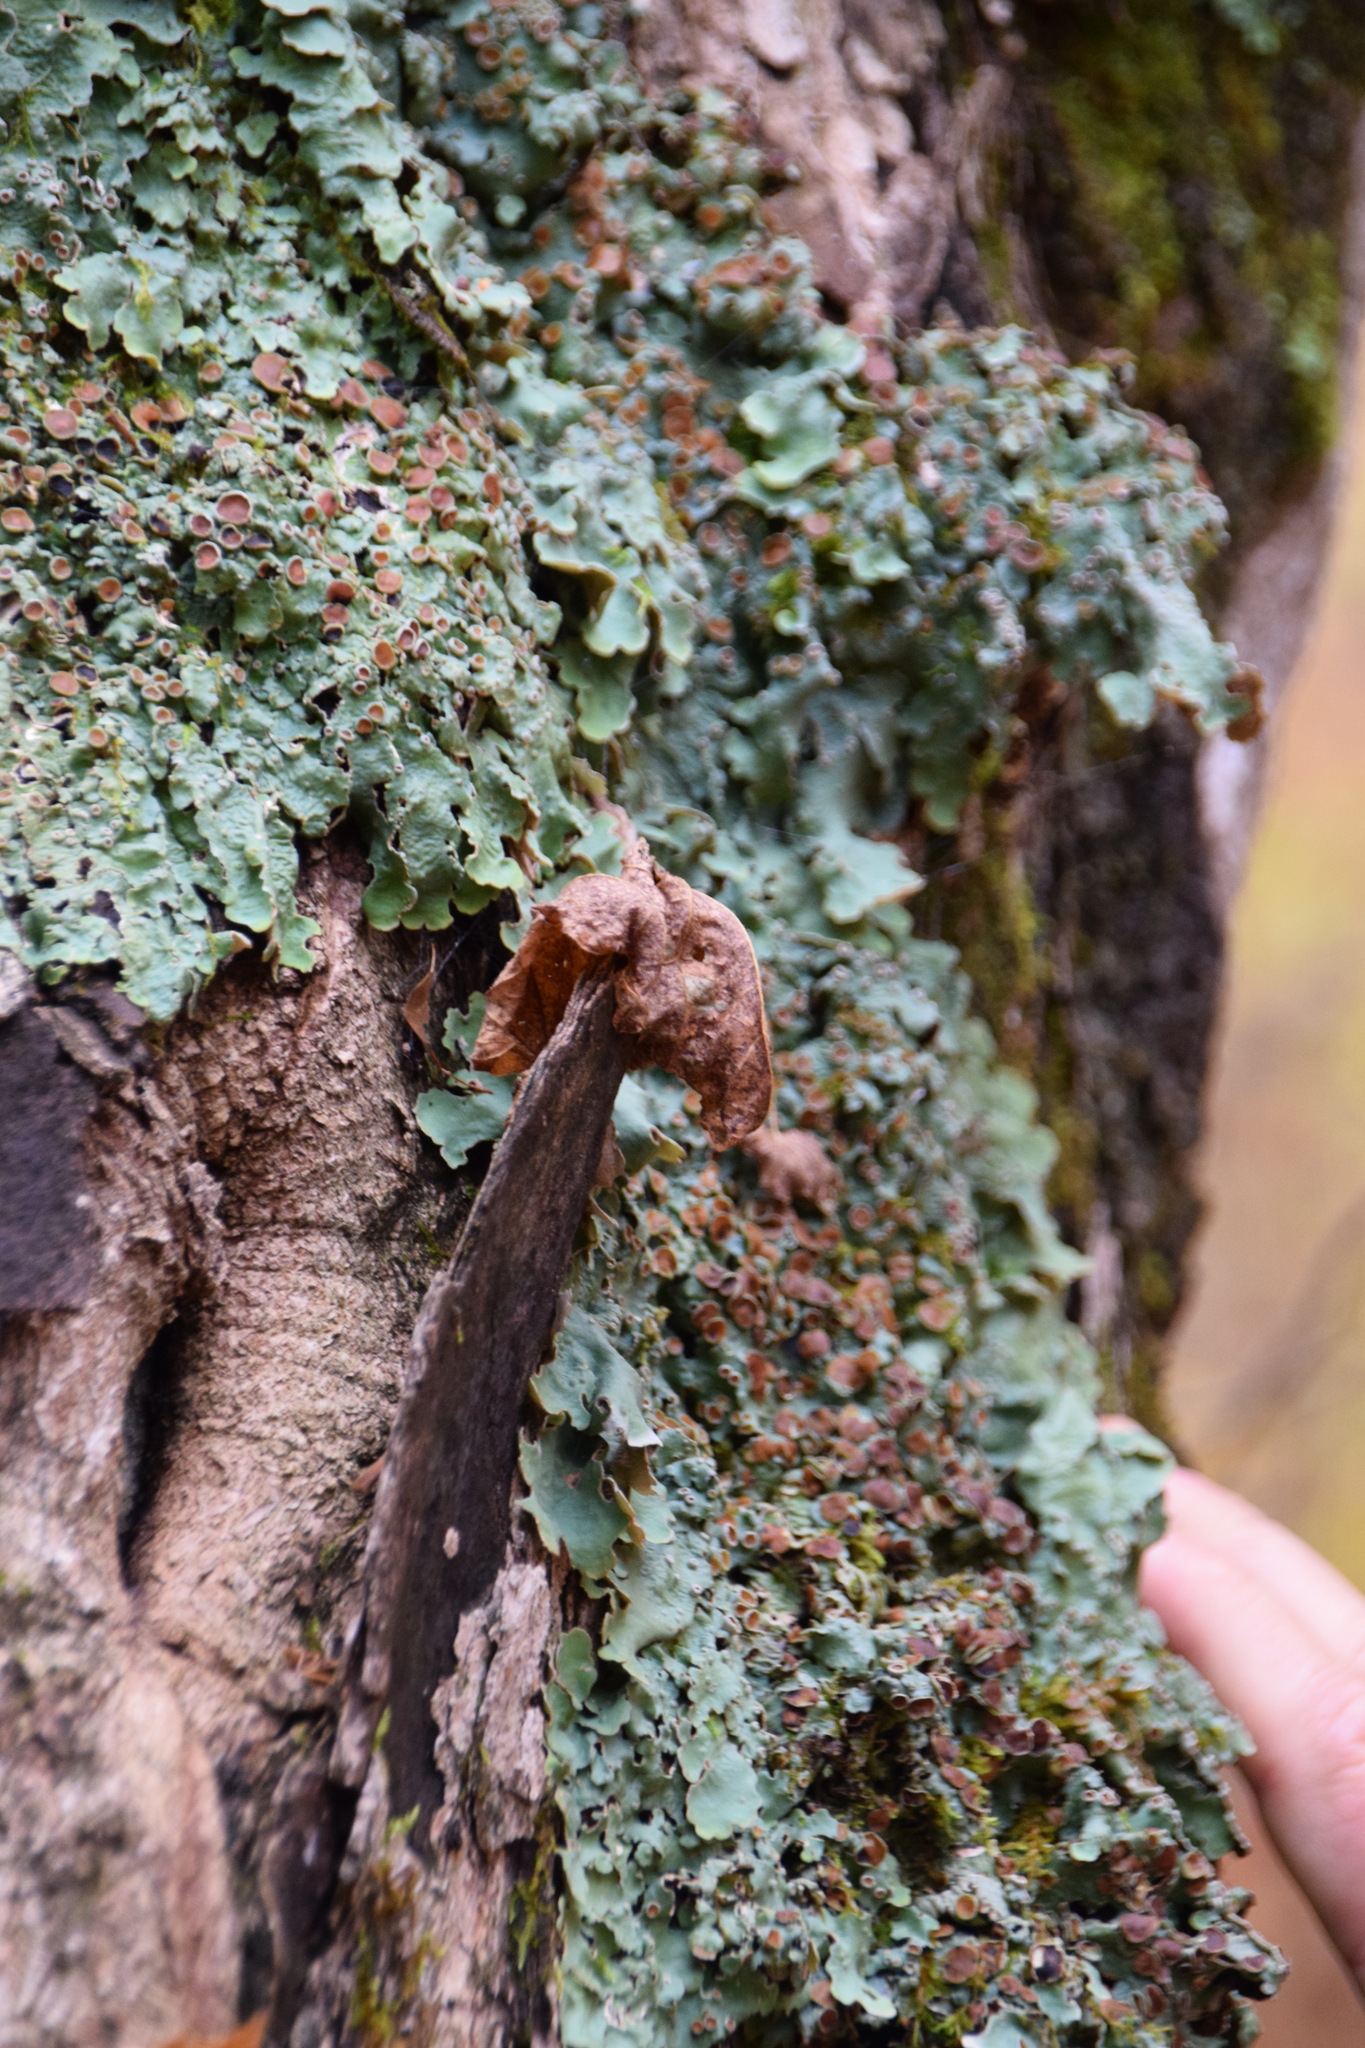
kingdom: Fungi
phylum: Ascomycota
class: Lecanoromycetes
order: Peltigerales
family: Lobariaceae
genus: Ricasolia
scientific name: Ricasolia quercizans
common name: Smooth lungwort
